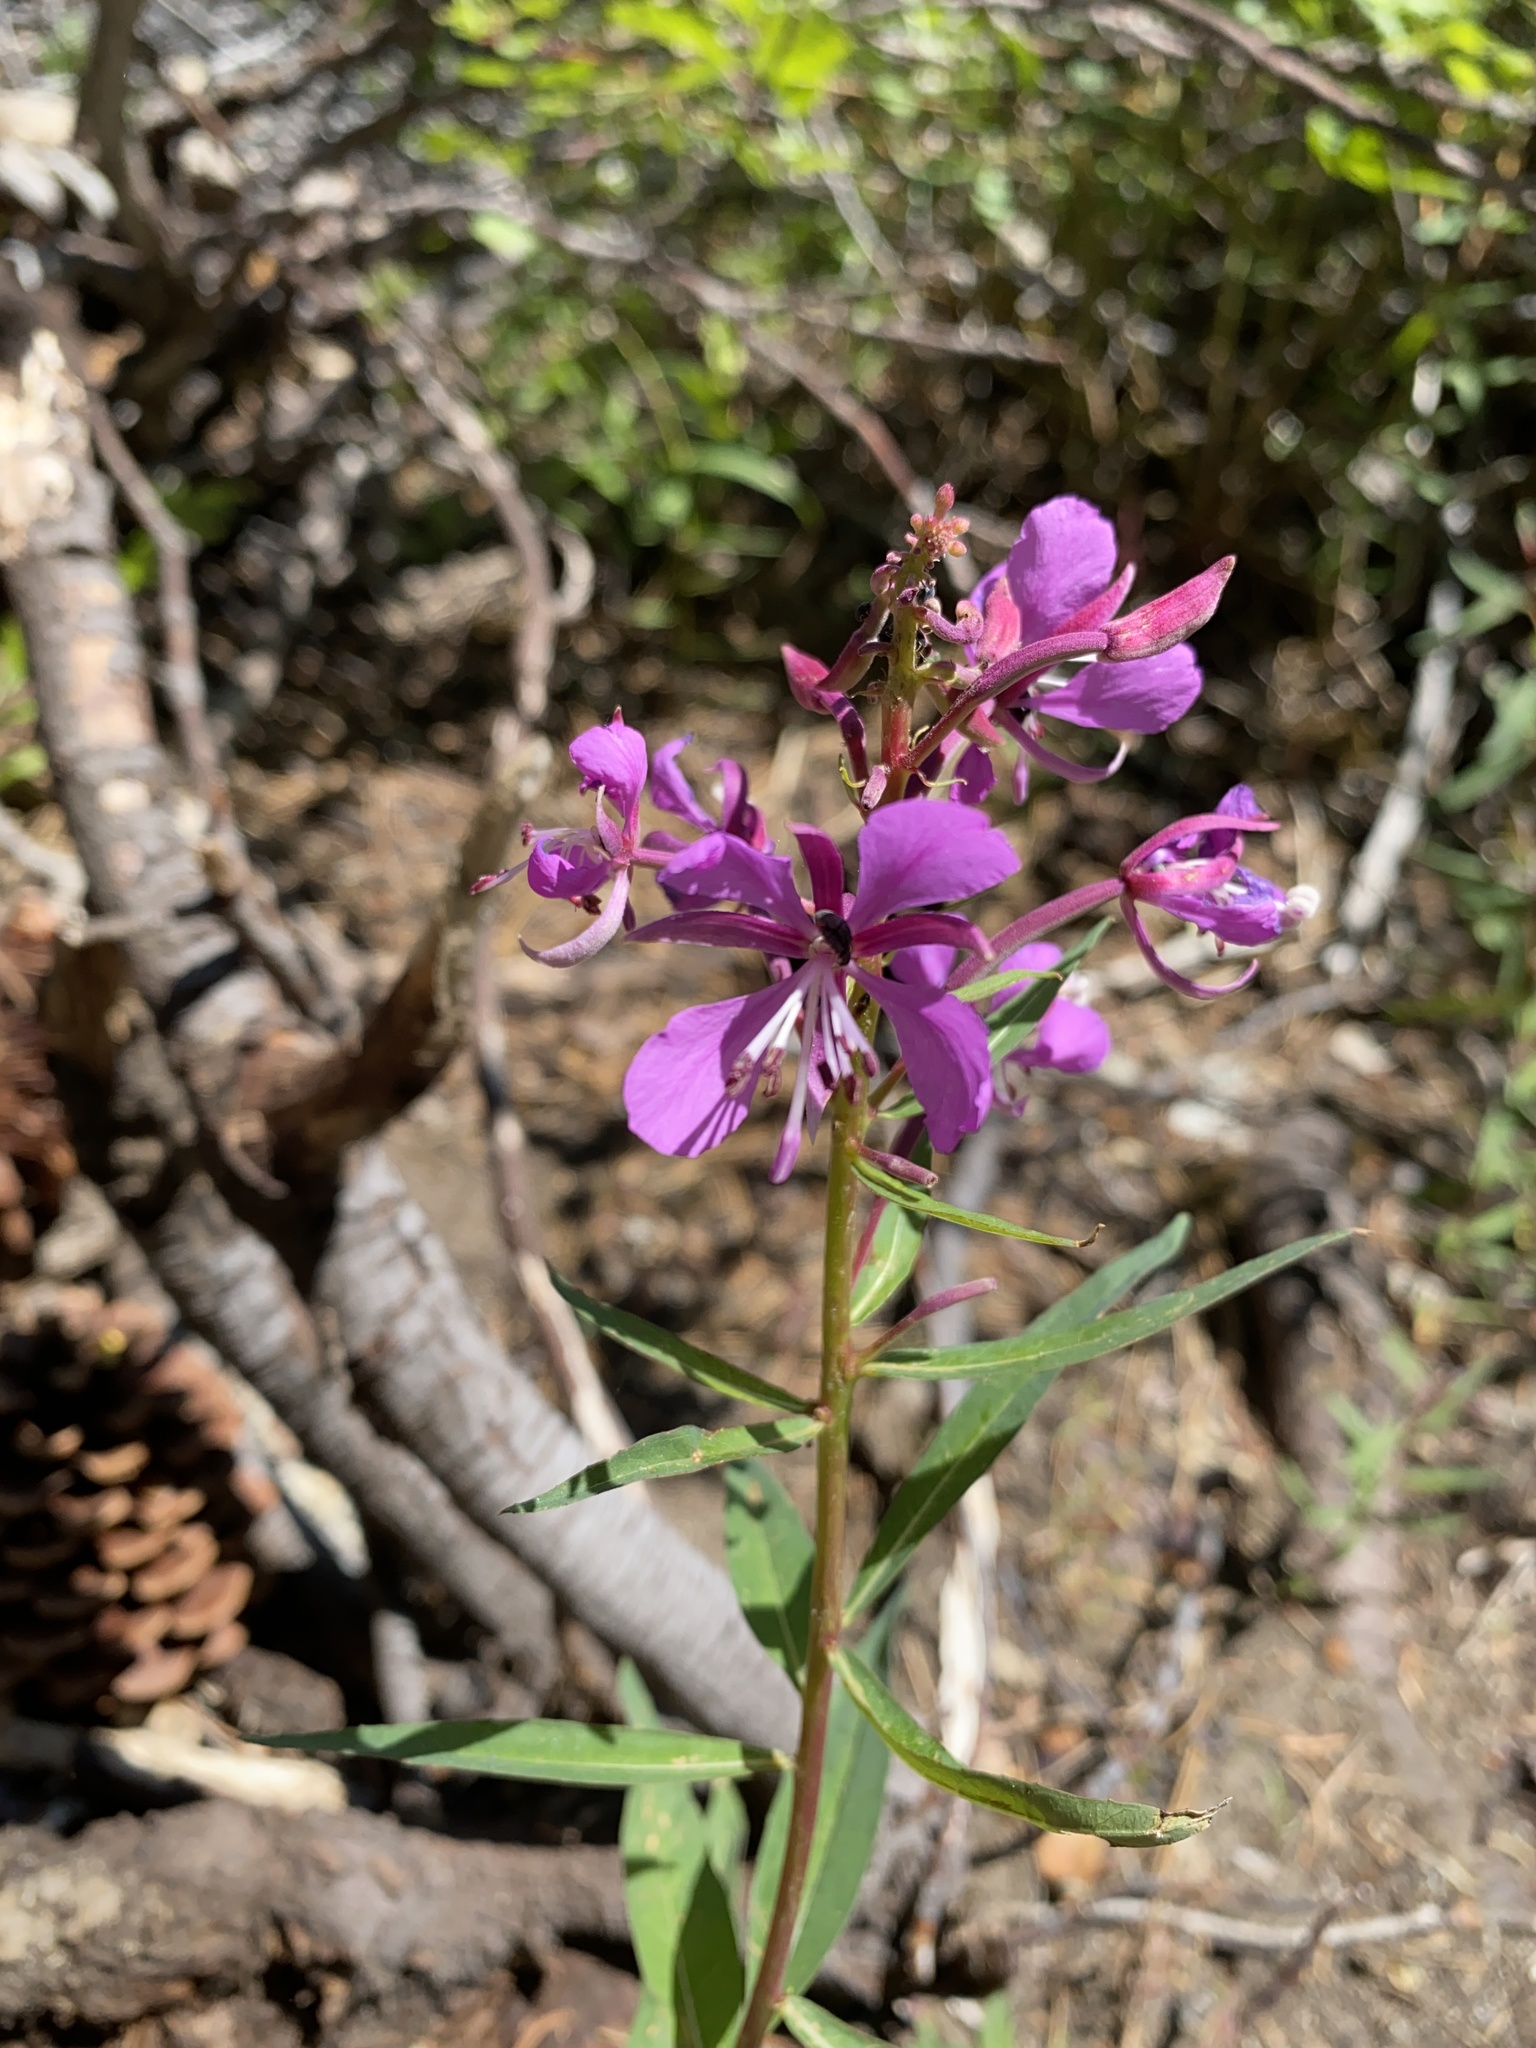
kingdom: Plantae
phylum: Tracheophyta
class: Magnoliopsida
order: Myrtales
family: Onagraceae
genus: Chamaenerion
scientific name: Chamaenerion angustifolium
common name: Fireweed
